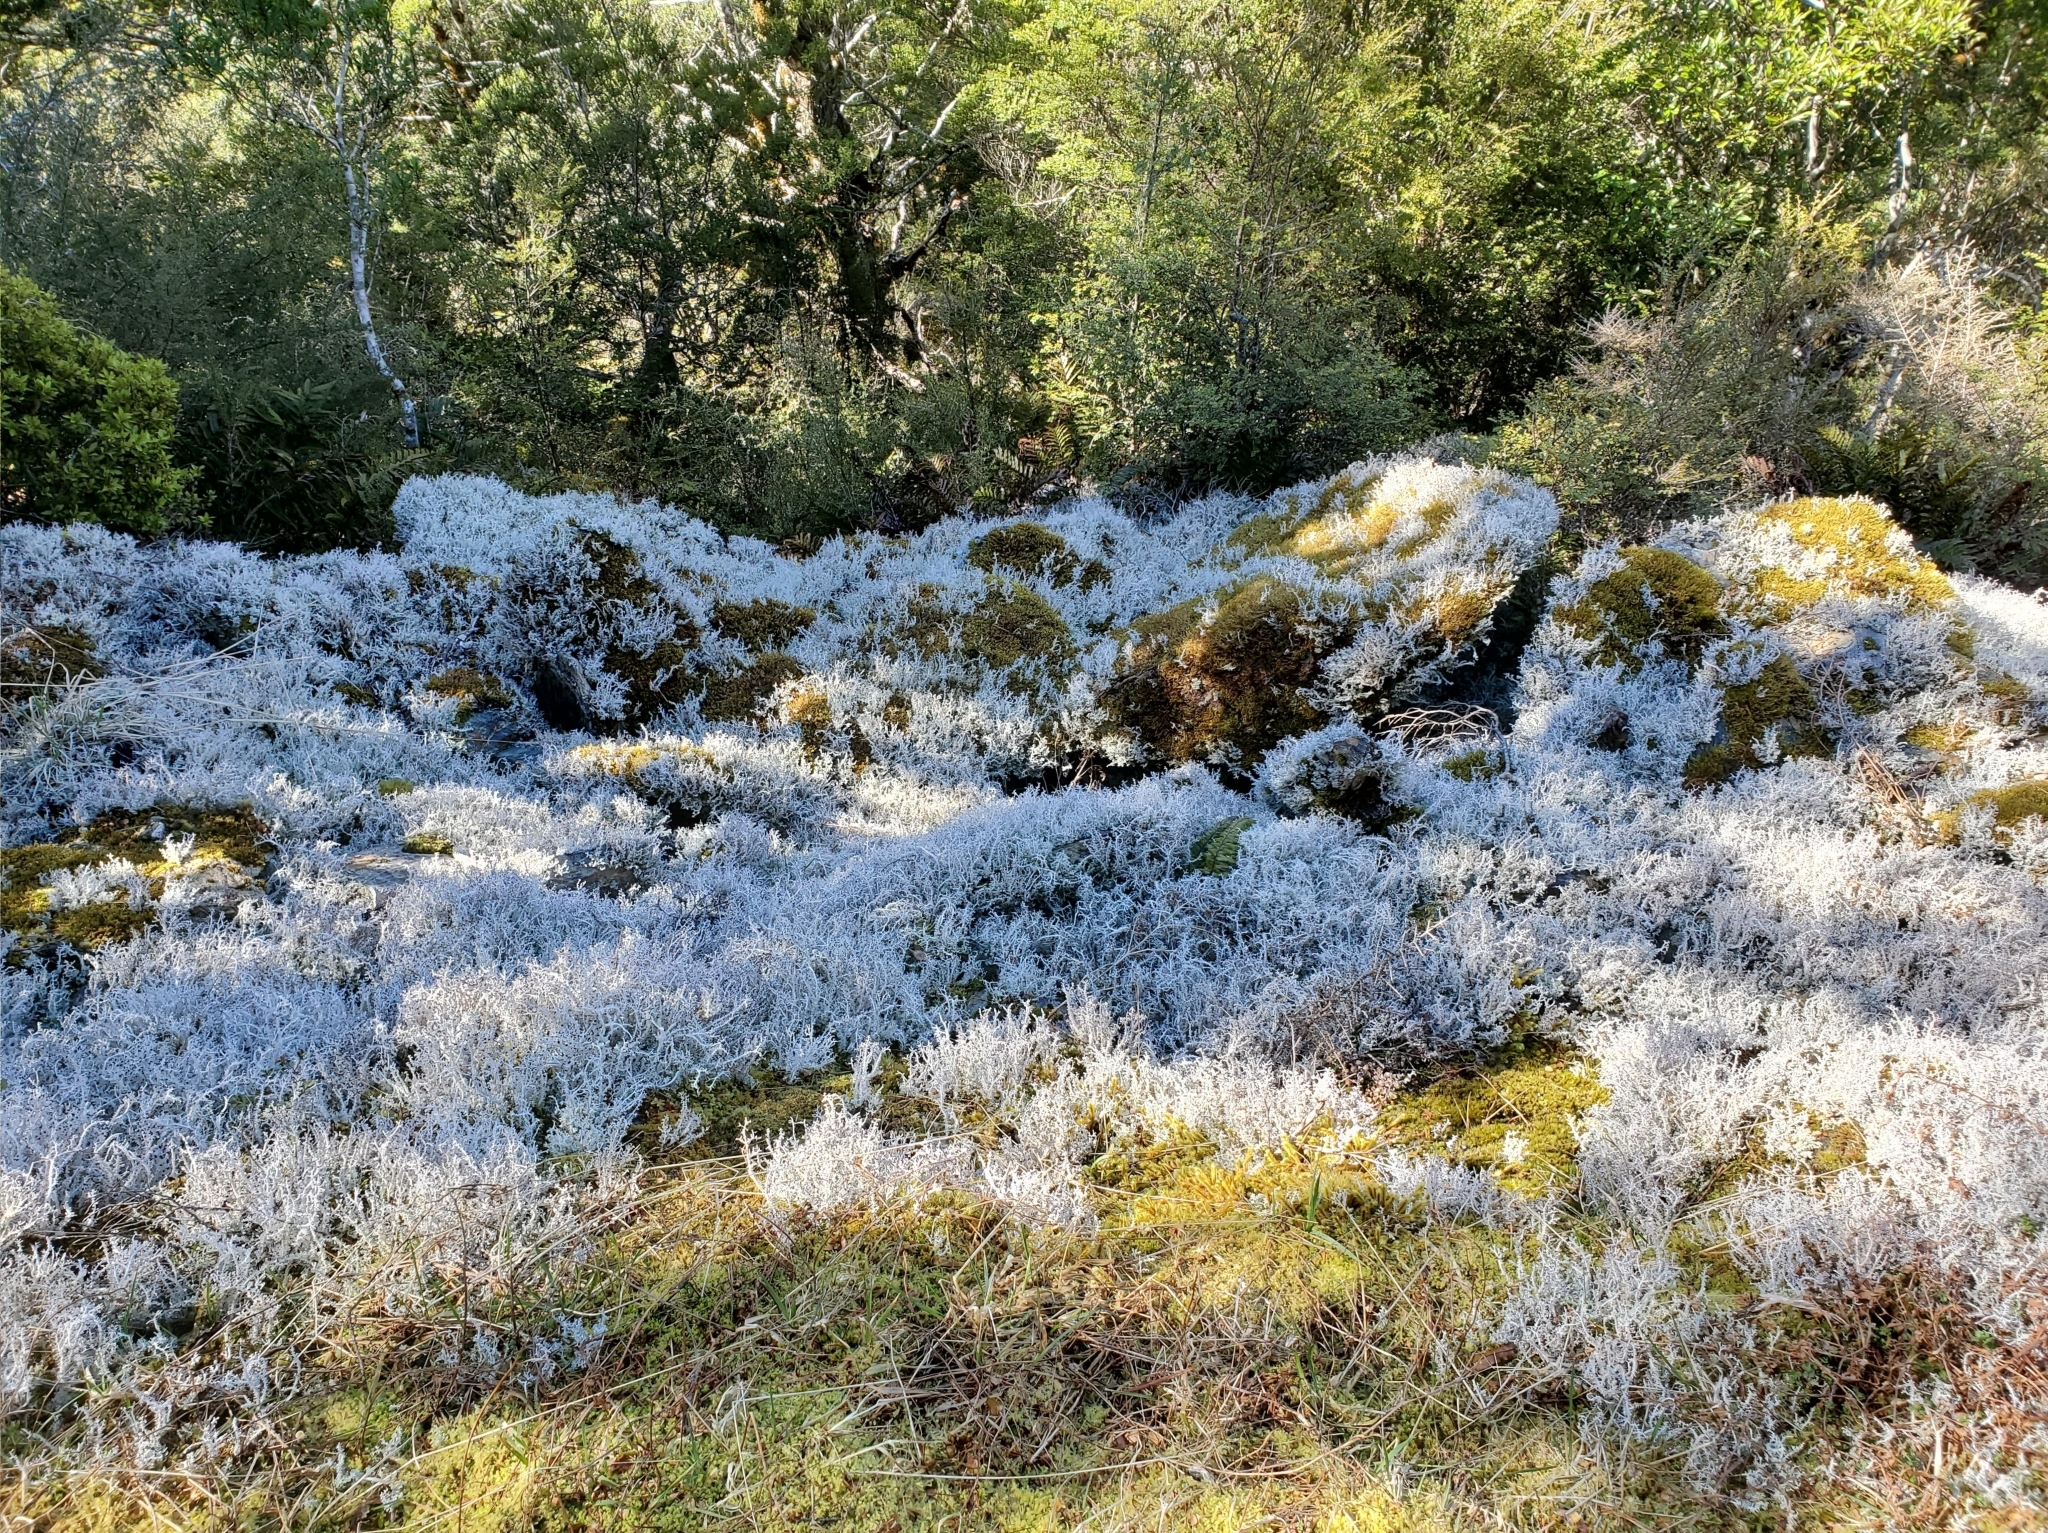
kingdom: Fungi
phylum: Ascomycota
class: Lecanoromycetes
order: Lecanorales
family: Stereocaulaceae
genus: Stereocaulon
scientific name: Stereocaulon ramulosum
